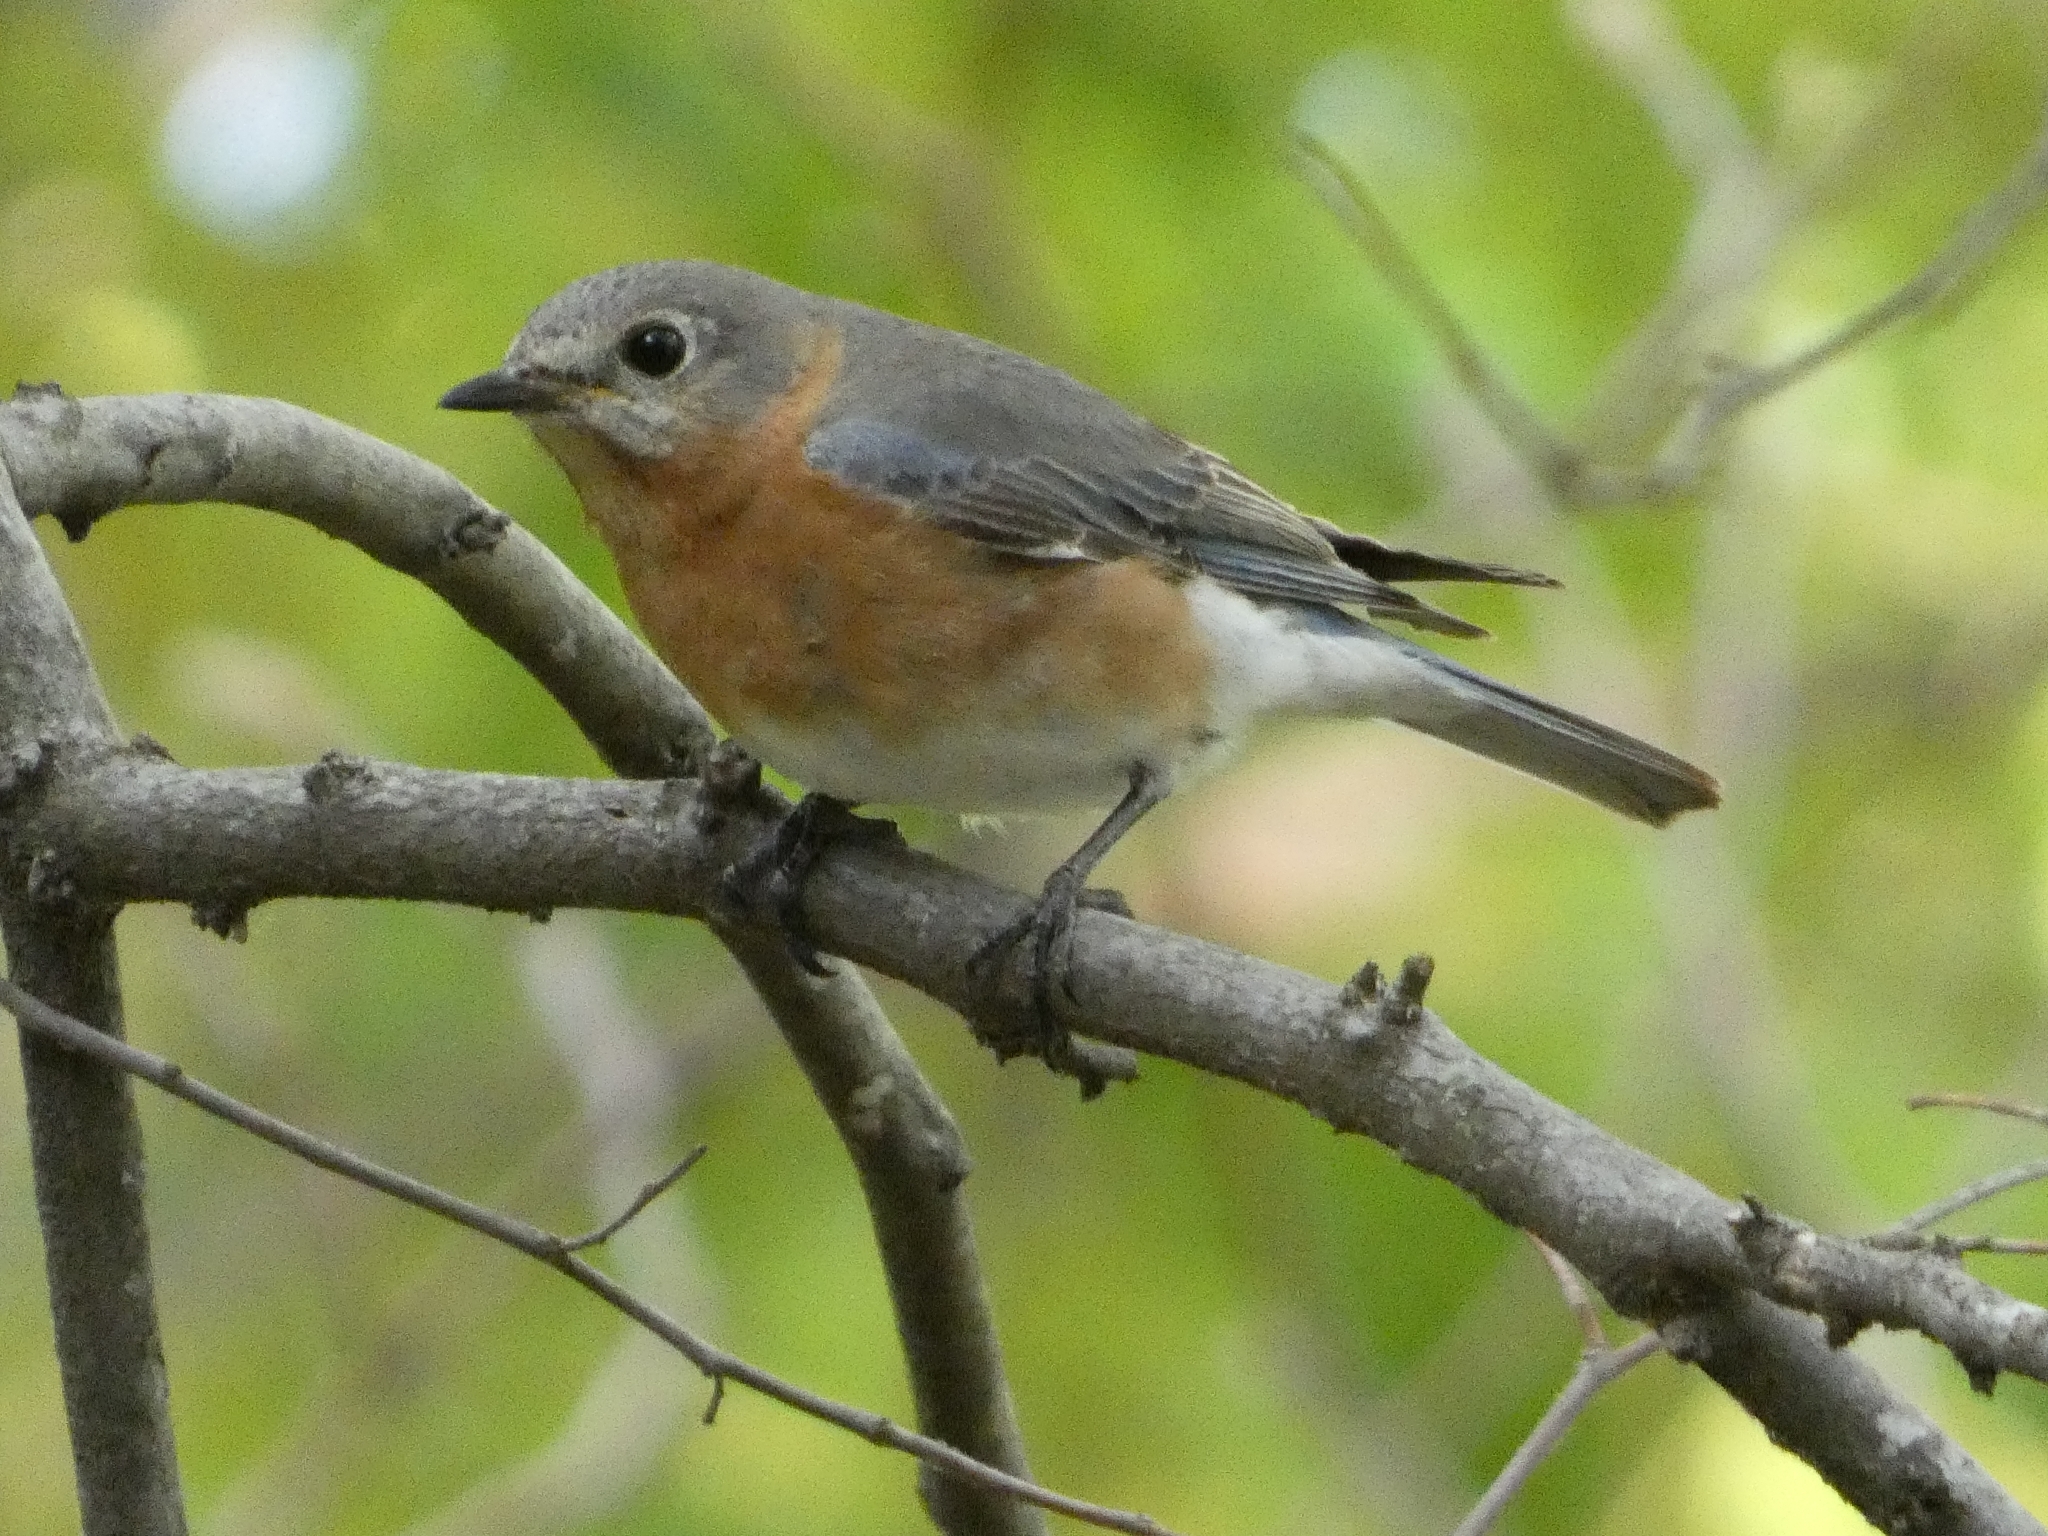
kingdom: Animalia
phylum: Chordata
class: Aves
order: Passeriformes
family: Turdidae
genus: Sialia
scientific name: Sialia sialis
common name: Eastern bluebird
